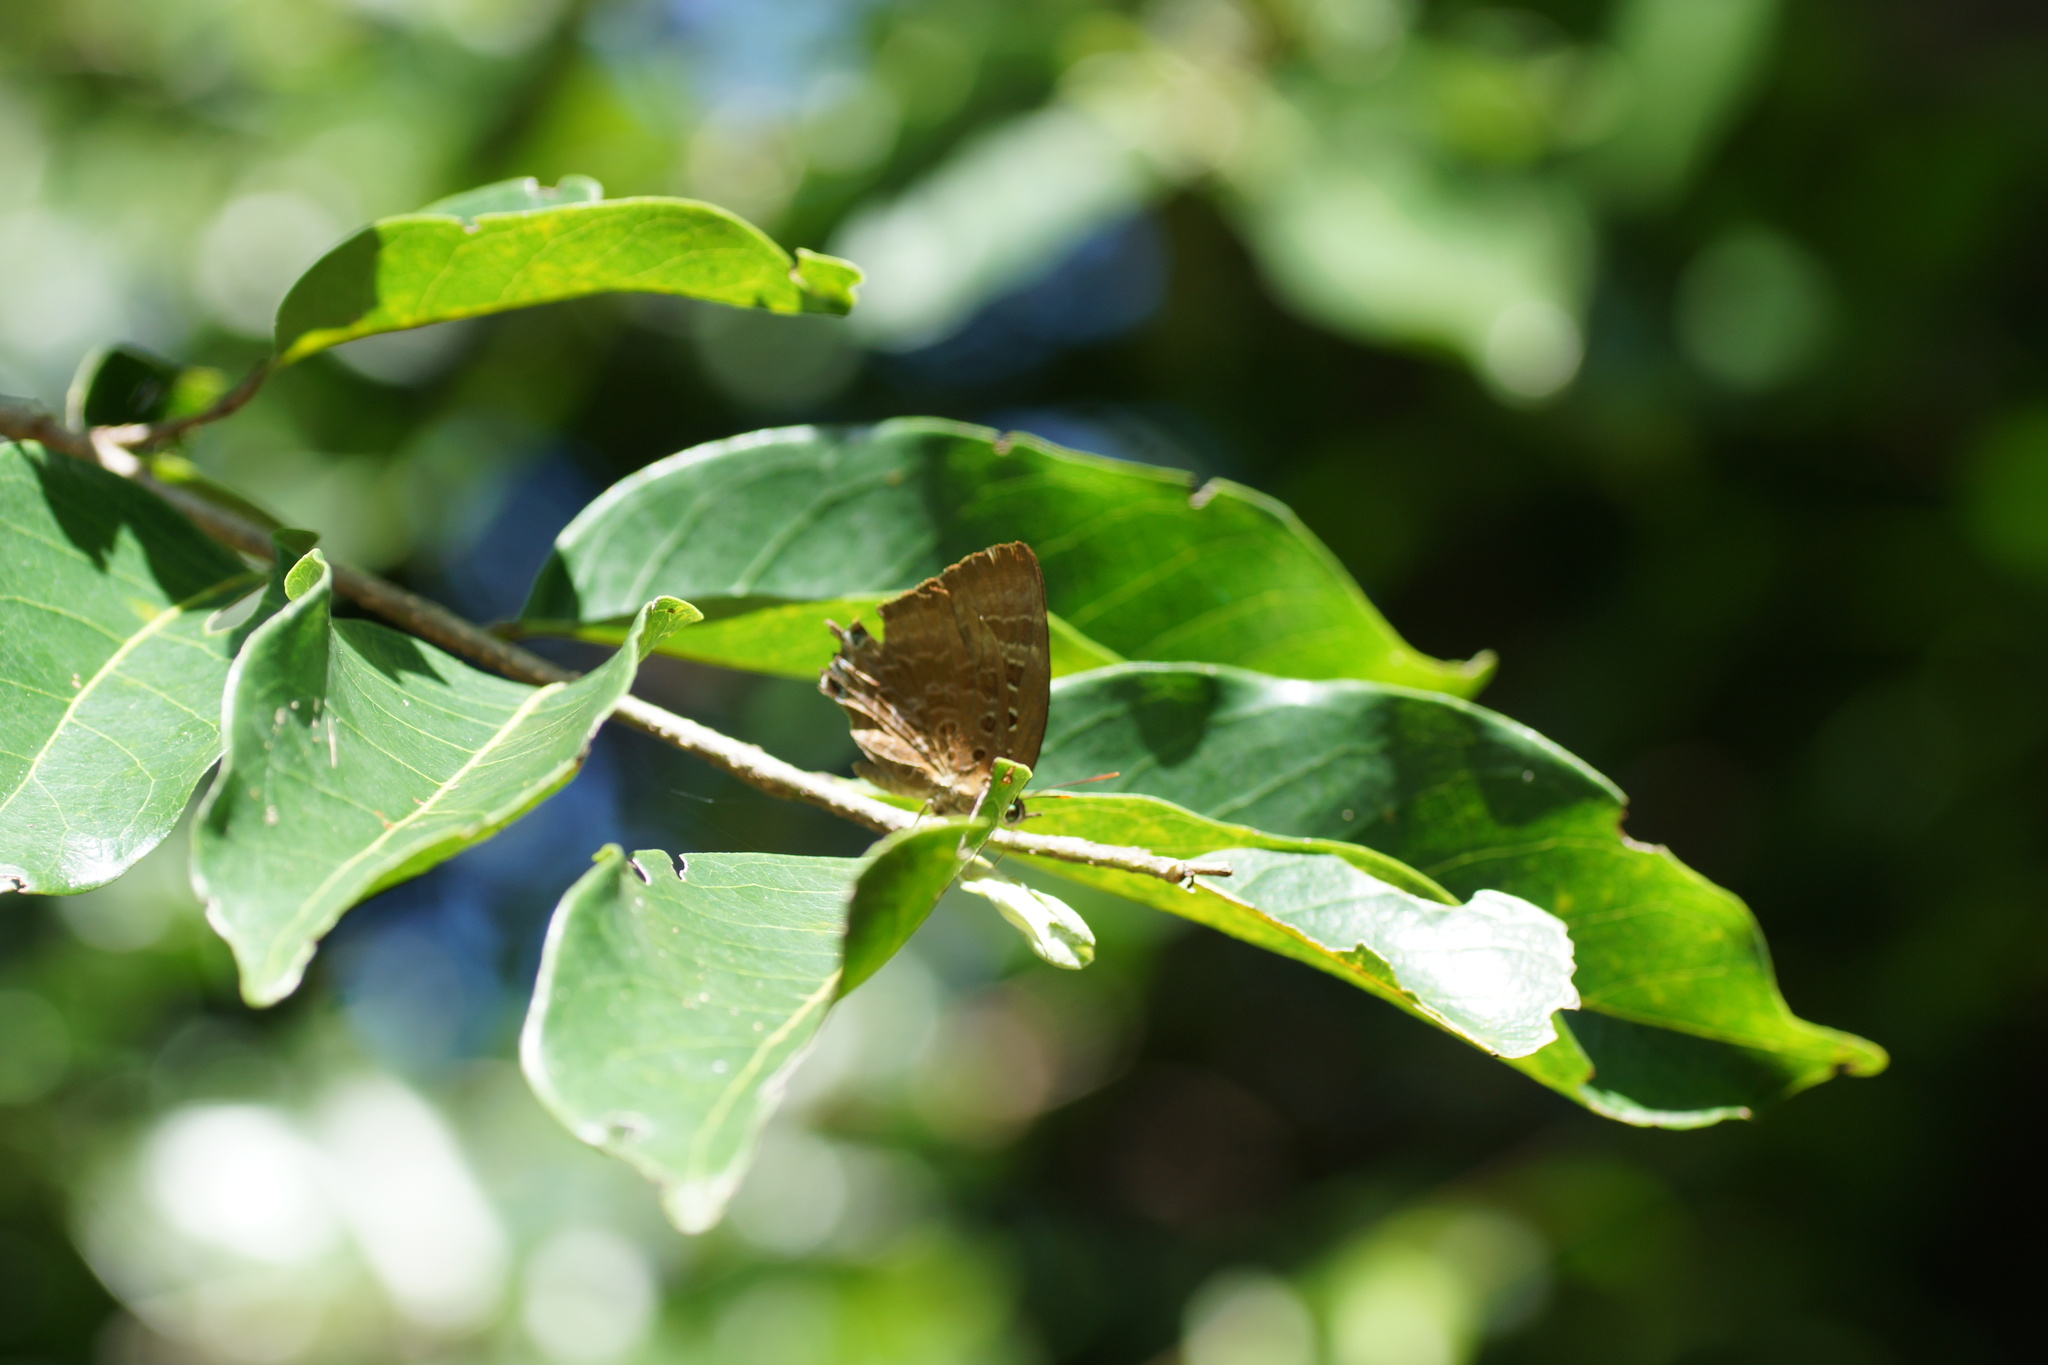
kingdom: Animalia
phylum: Arthropoda
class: Insecta
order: Lepidoptera
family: Lycaenidae
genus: Arhopala
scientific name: Arhopala
